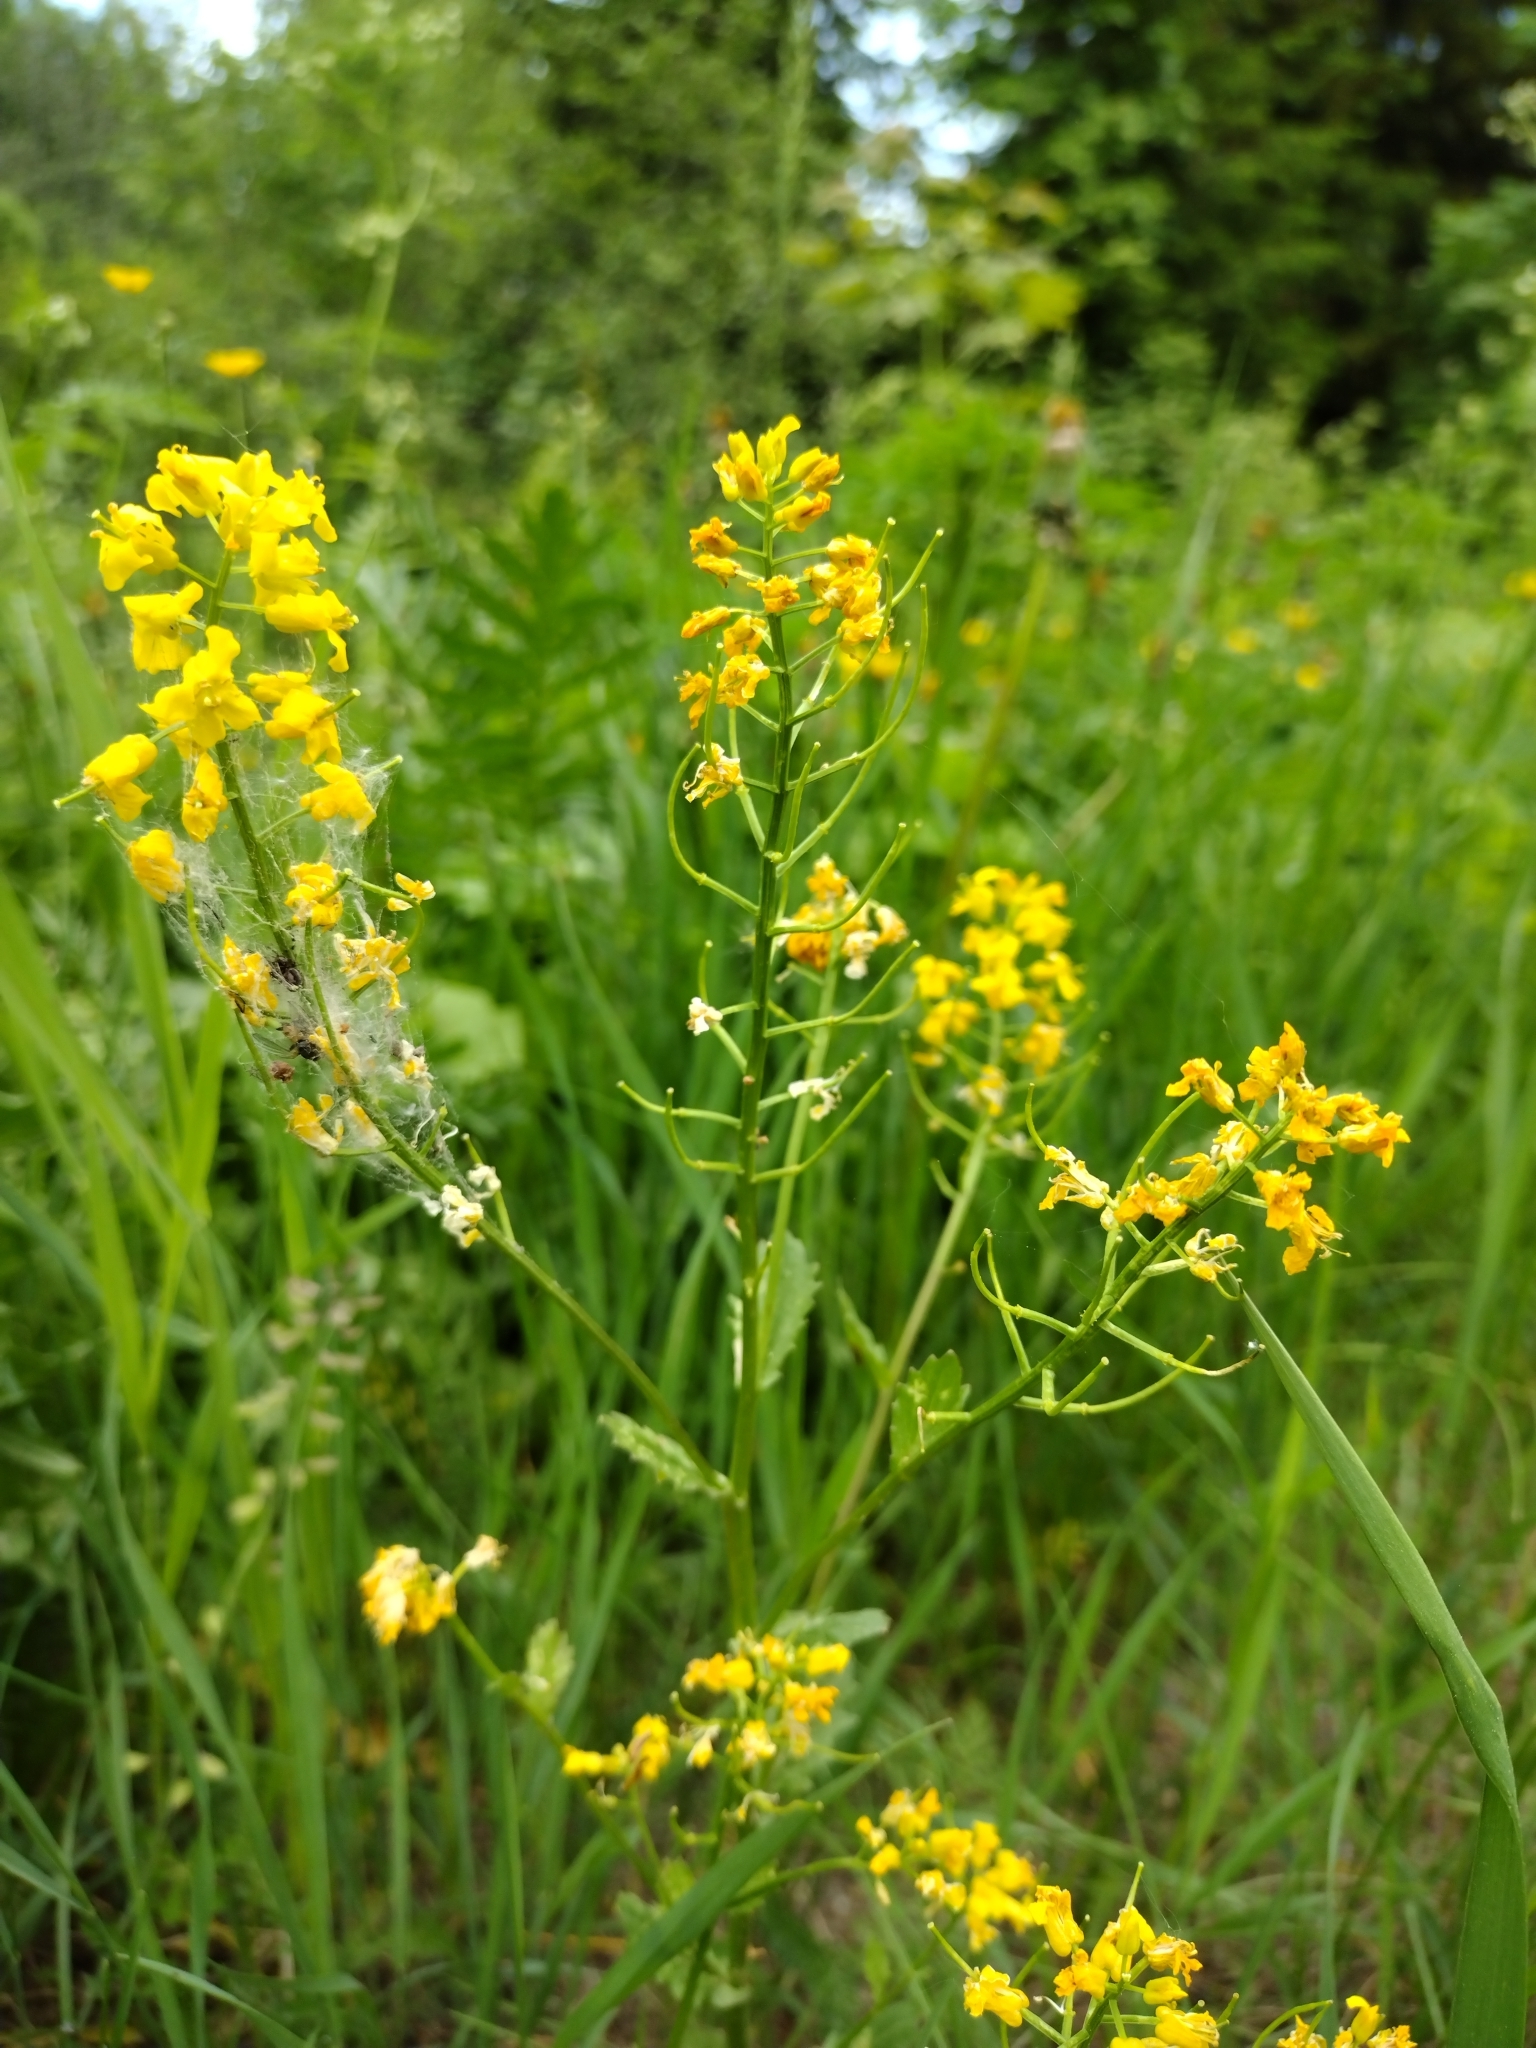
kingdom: Plantae
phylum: Tracheophyta
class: Magnoliopsida
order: Brassicales
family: Brassicaceae
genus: Barbarea
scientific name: Barbarea vulgaris
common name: Cressy-greens
